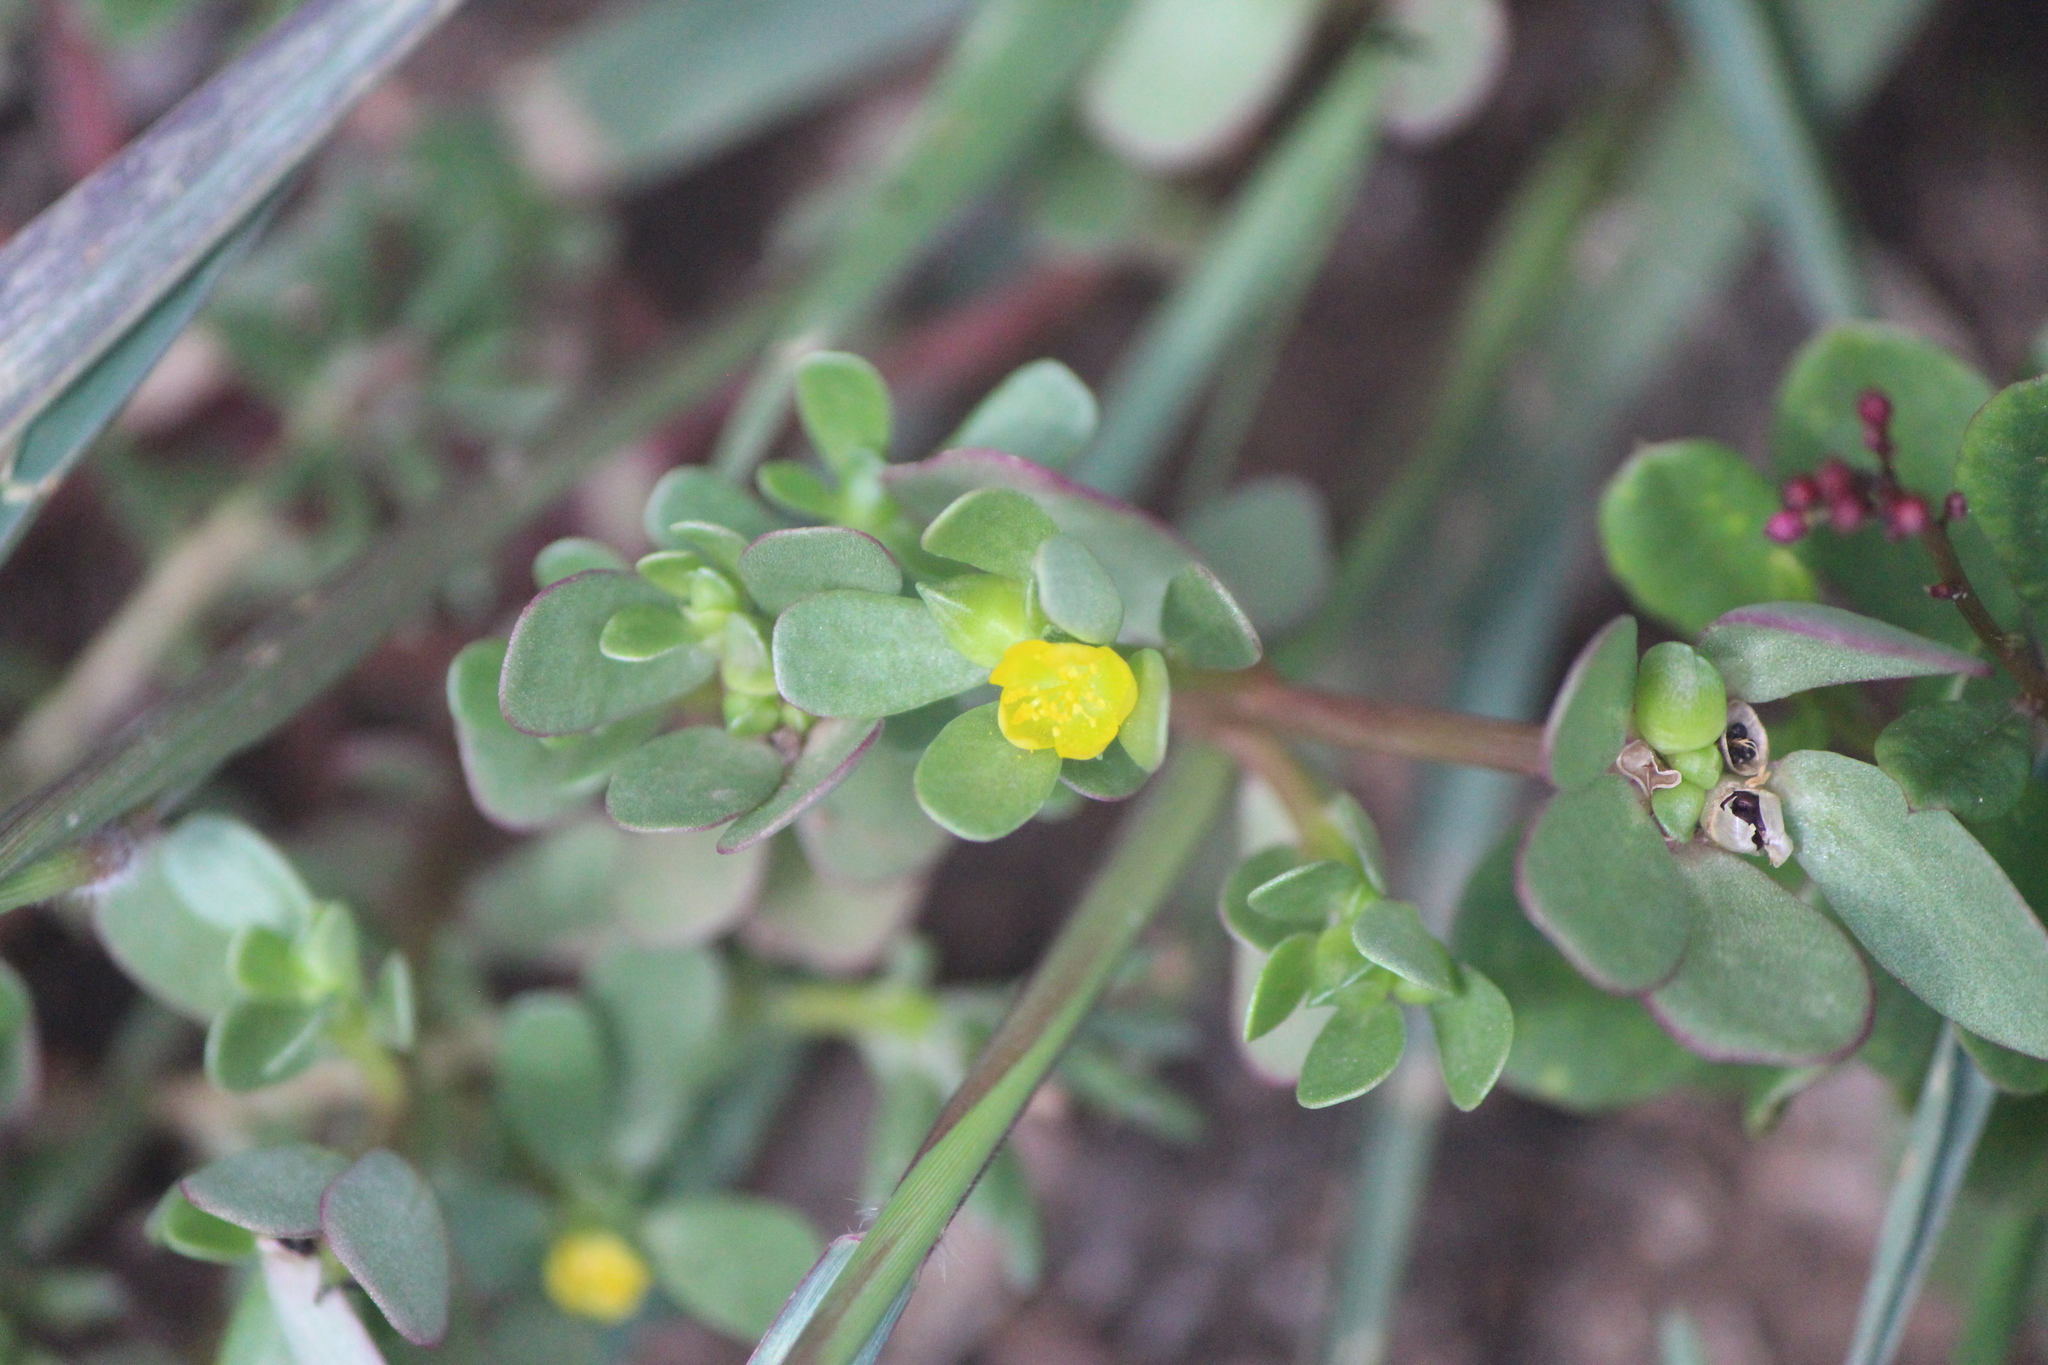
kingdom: Plantae
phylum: Tracheophyta
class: Magnoliopsida
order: Caryophyllales
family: Portulacaceae
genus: Portulaca
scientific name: Portulaca oleracea
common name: Common purslane
